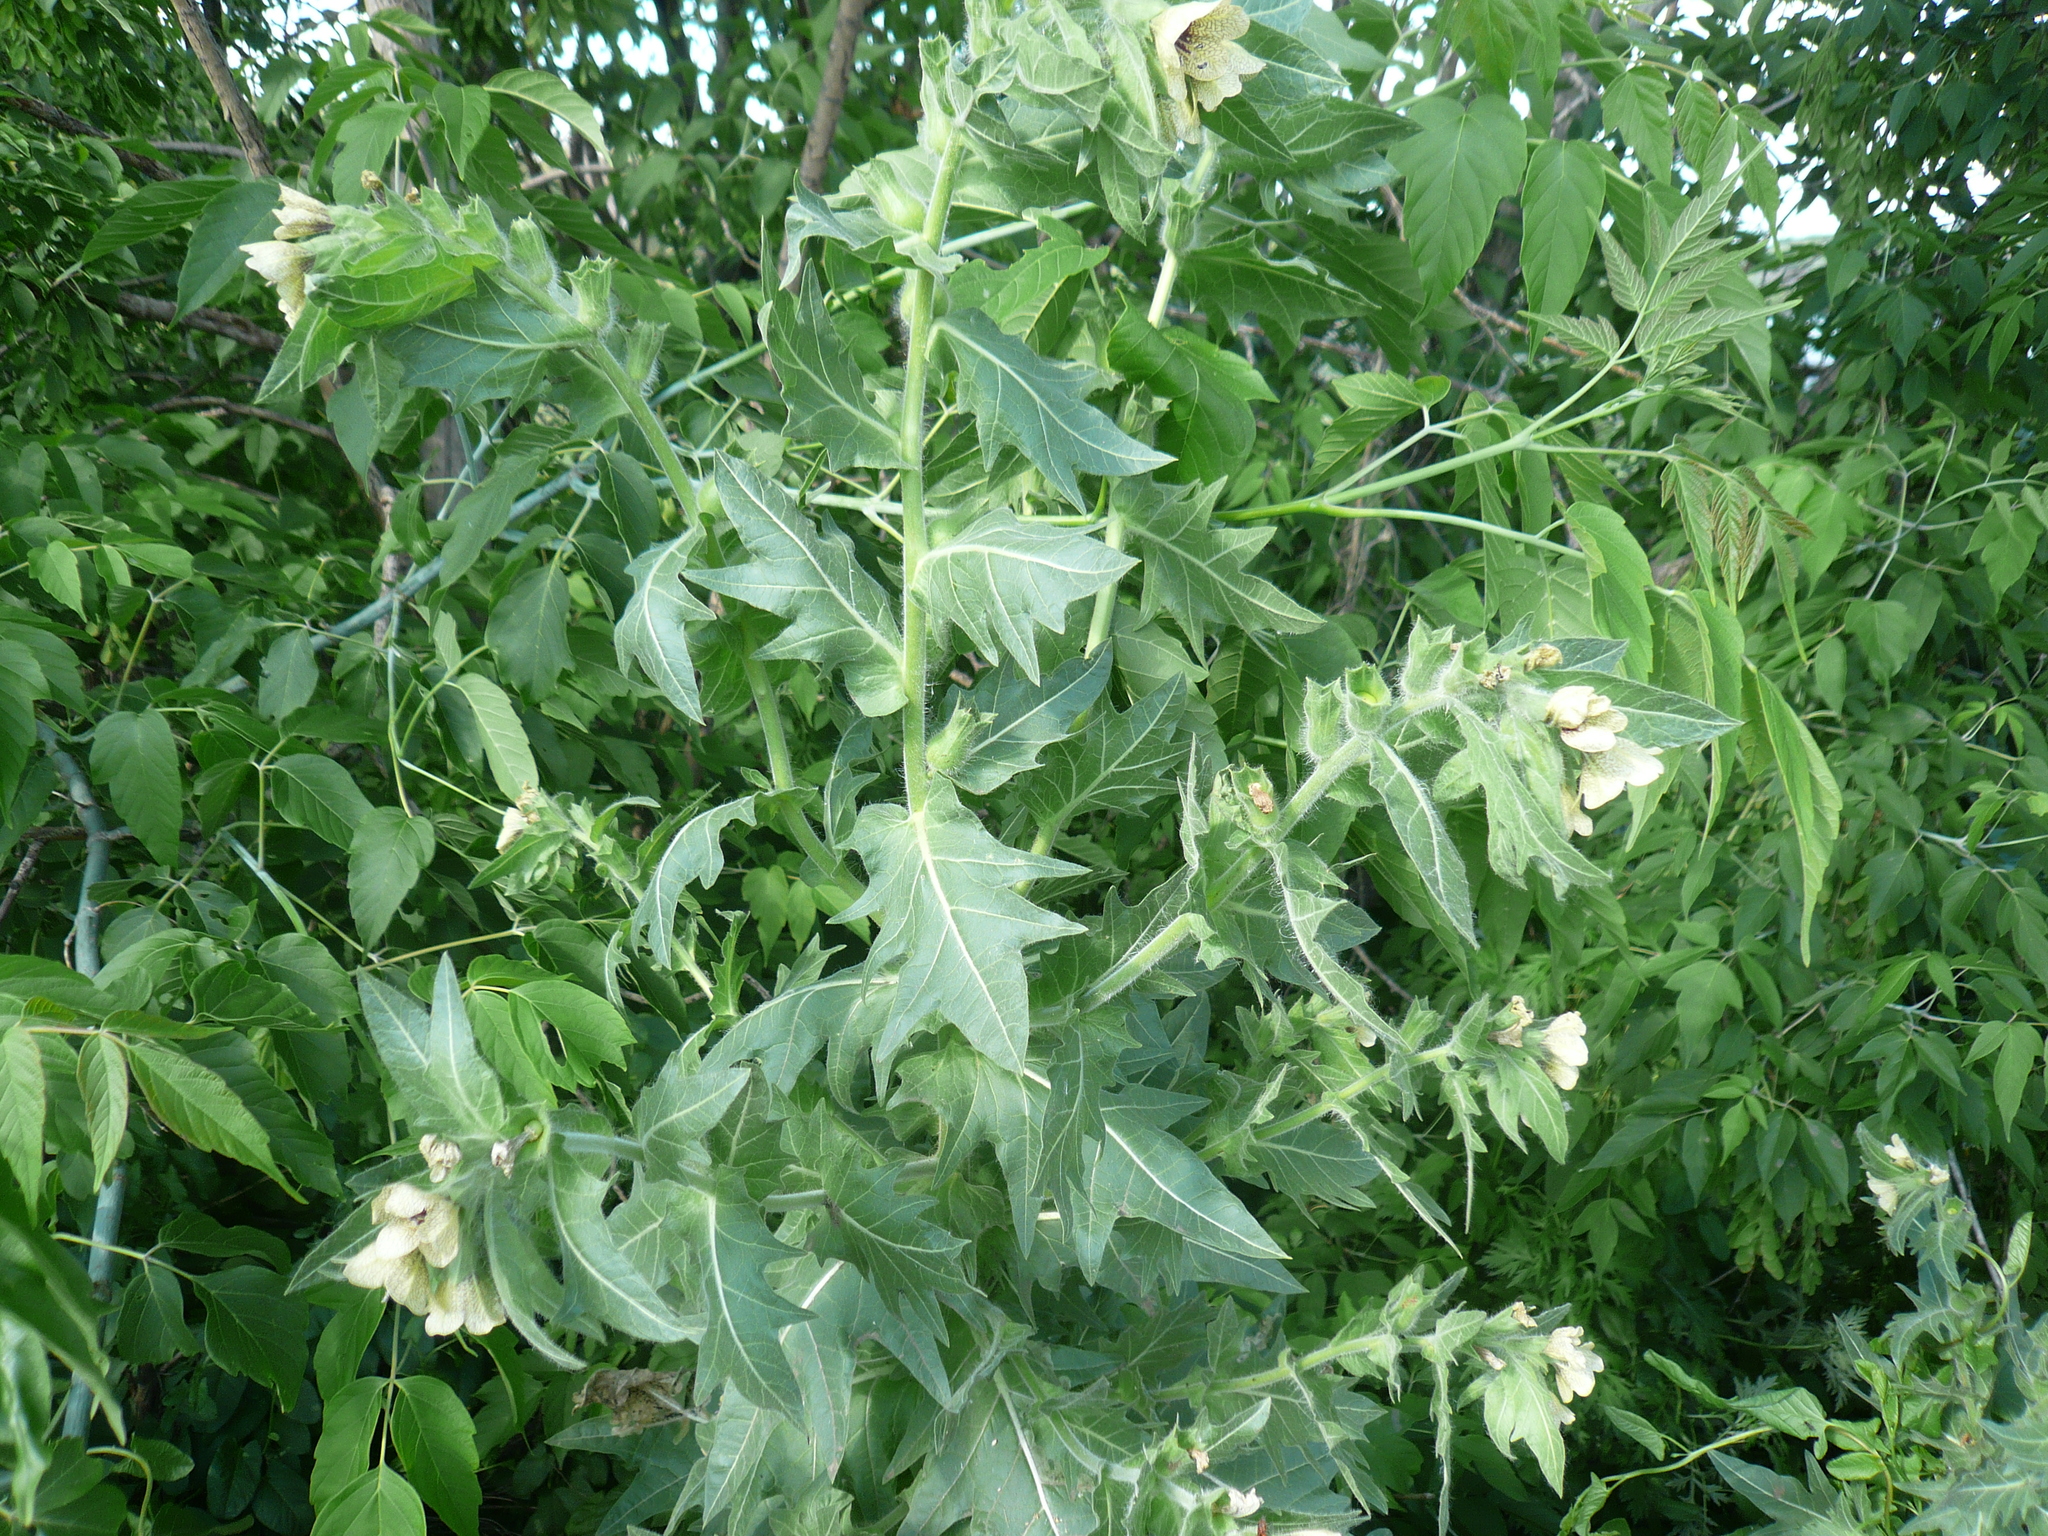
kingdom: Plantae
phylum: Tracheophyta
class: Magnoliopsida
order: Solanales
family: Solanaceae
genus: Hyoscyamus
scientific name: Hyoscyamus niger
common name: Henbane
